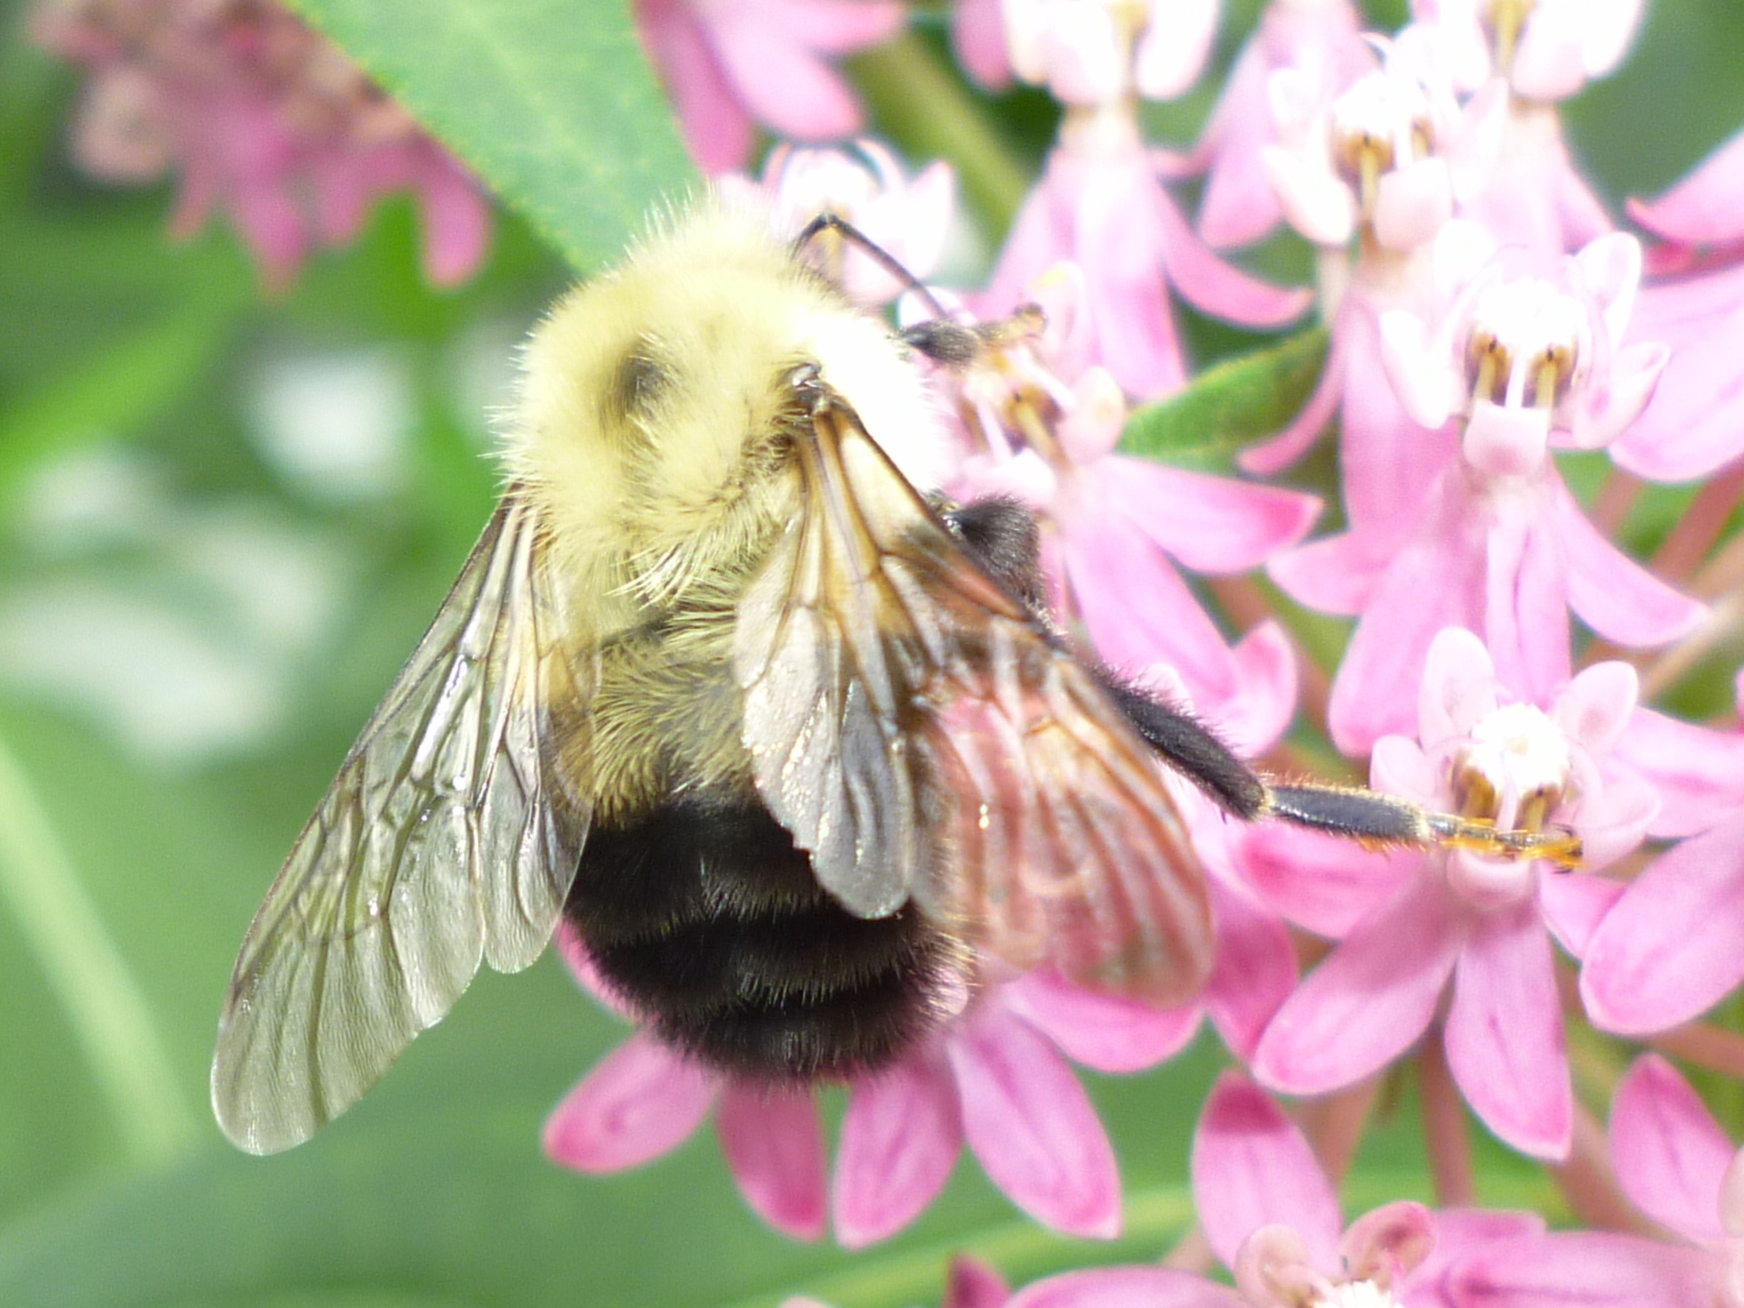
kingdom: Animalia
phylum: Arthropoda
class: Insecta
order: Hymenoptera
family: Apidae
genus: Bombus
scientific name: Bombus bimaculatus
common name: Two-spotted bumble bee
